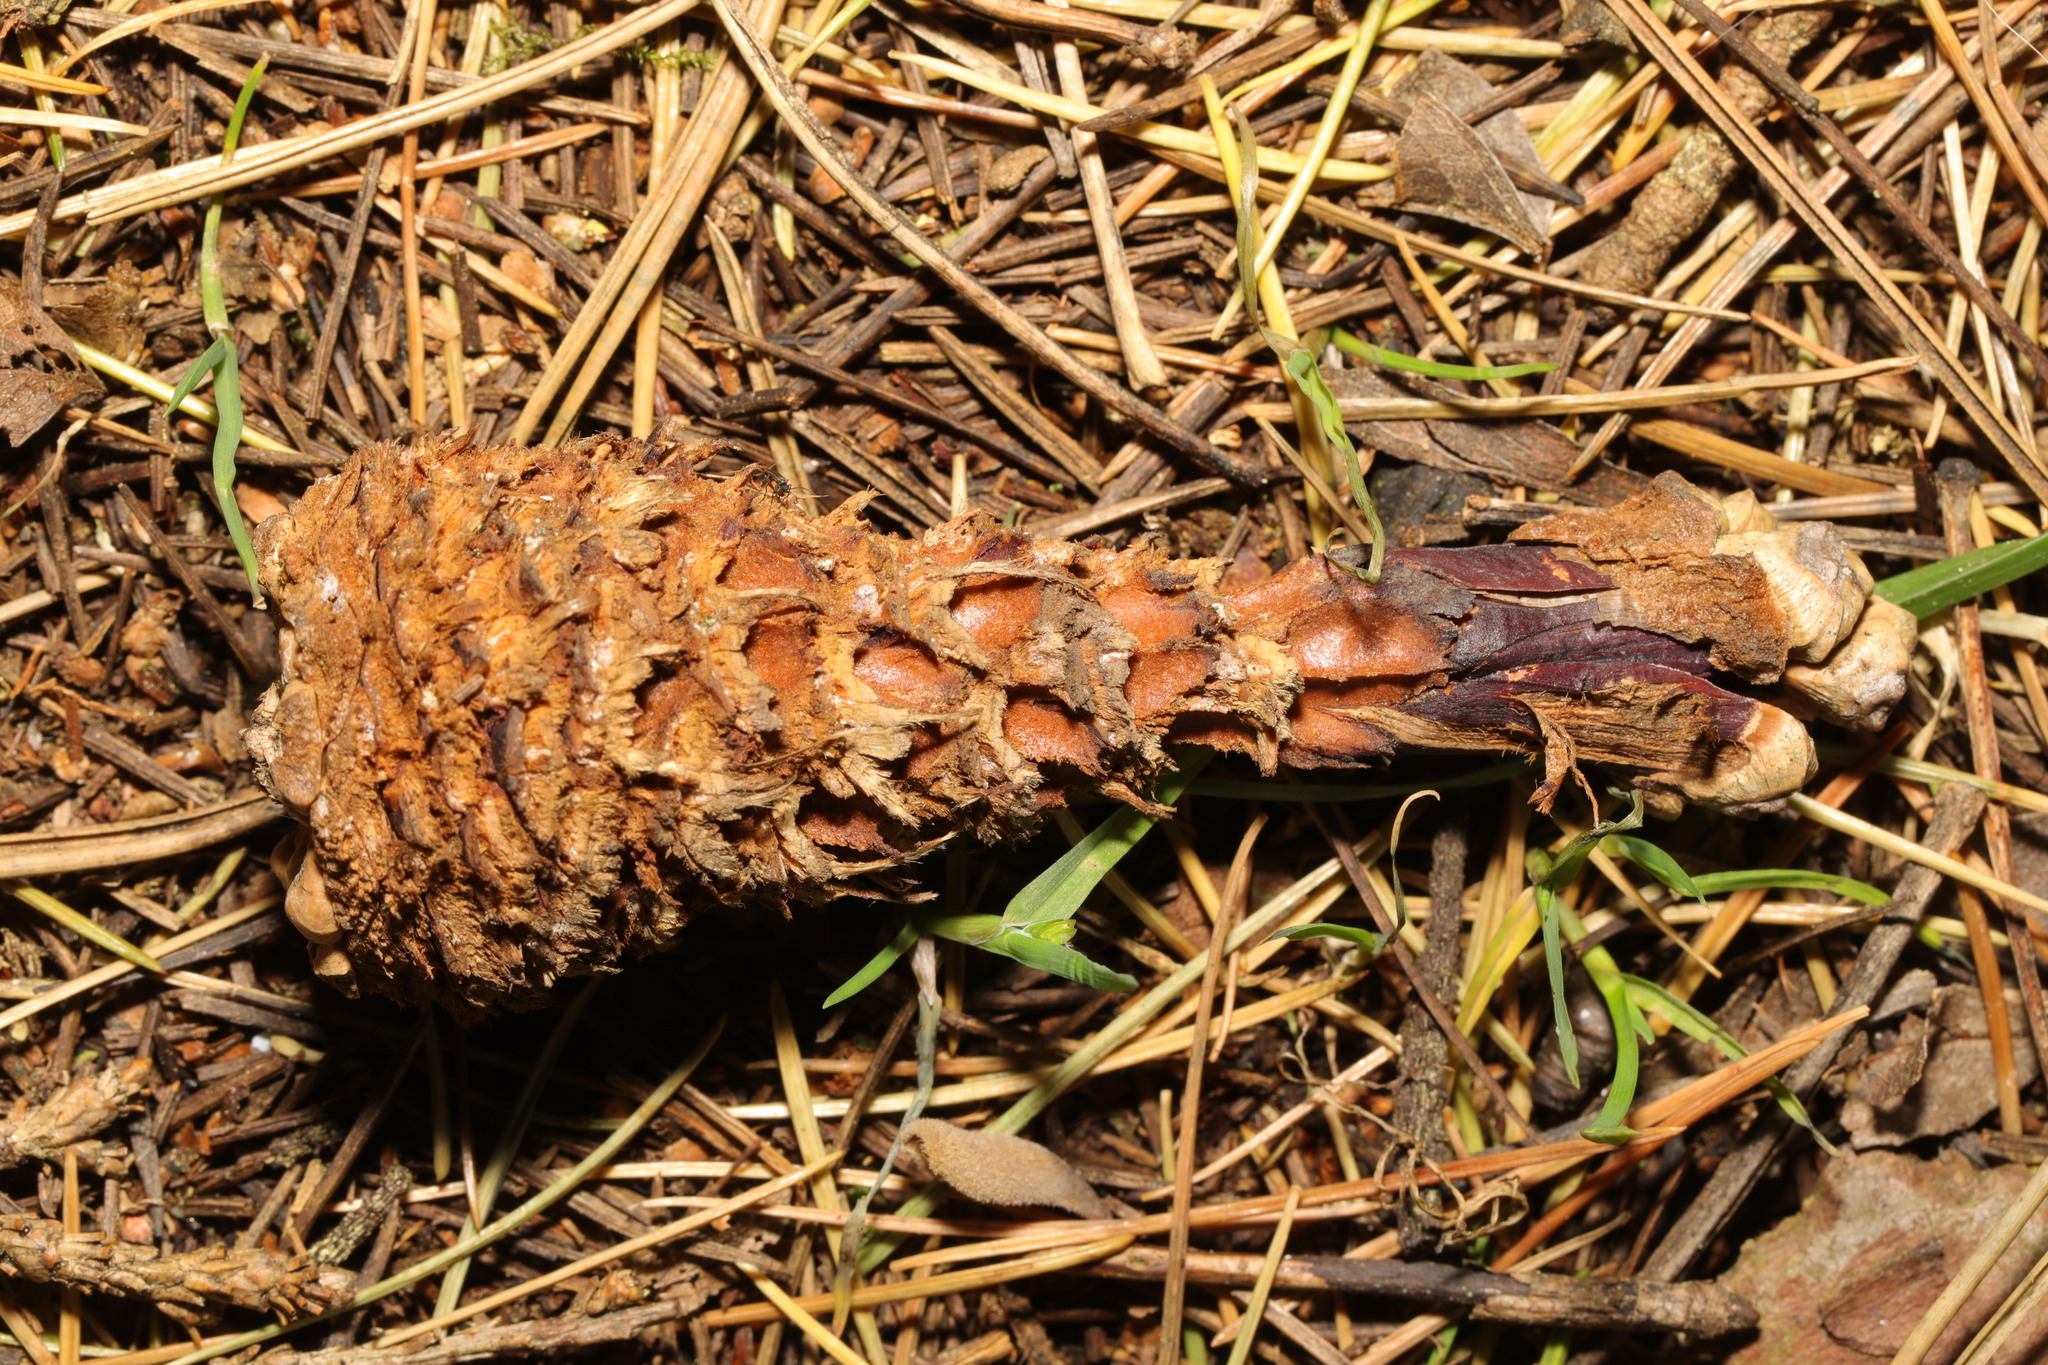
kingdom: Animalia
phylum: Chordata
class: Mammalia
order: Rodentia
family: Sciuridae
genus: Sciurus
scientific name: Sciurus carolinensis
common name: Eastern gray squirrel
